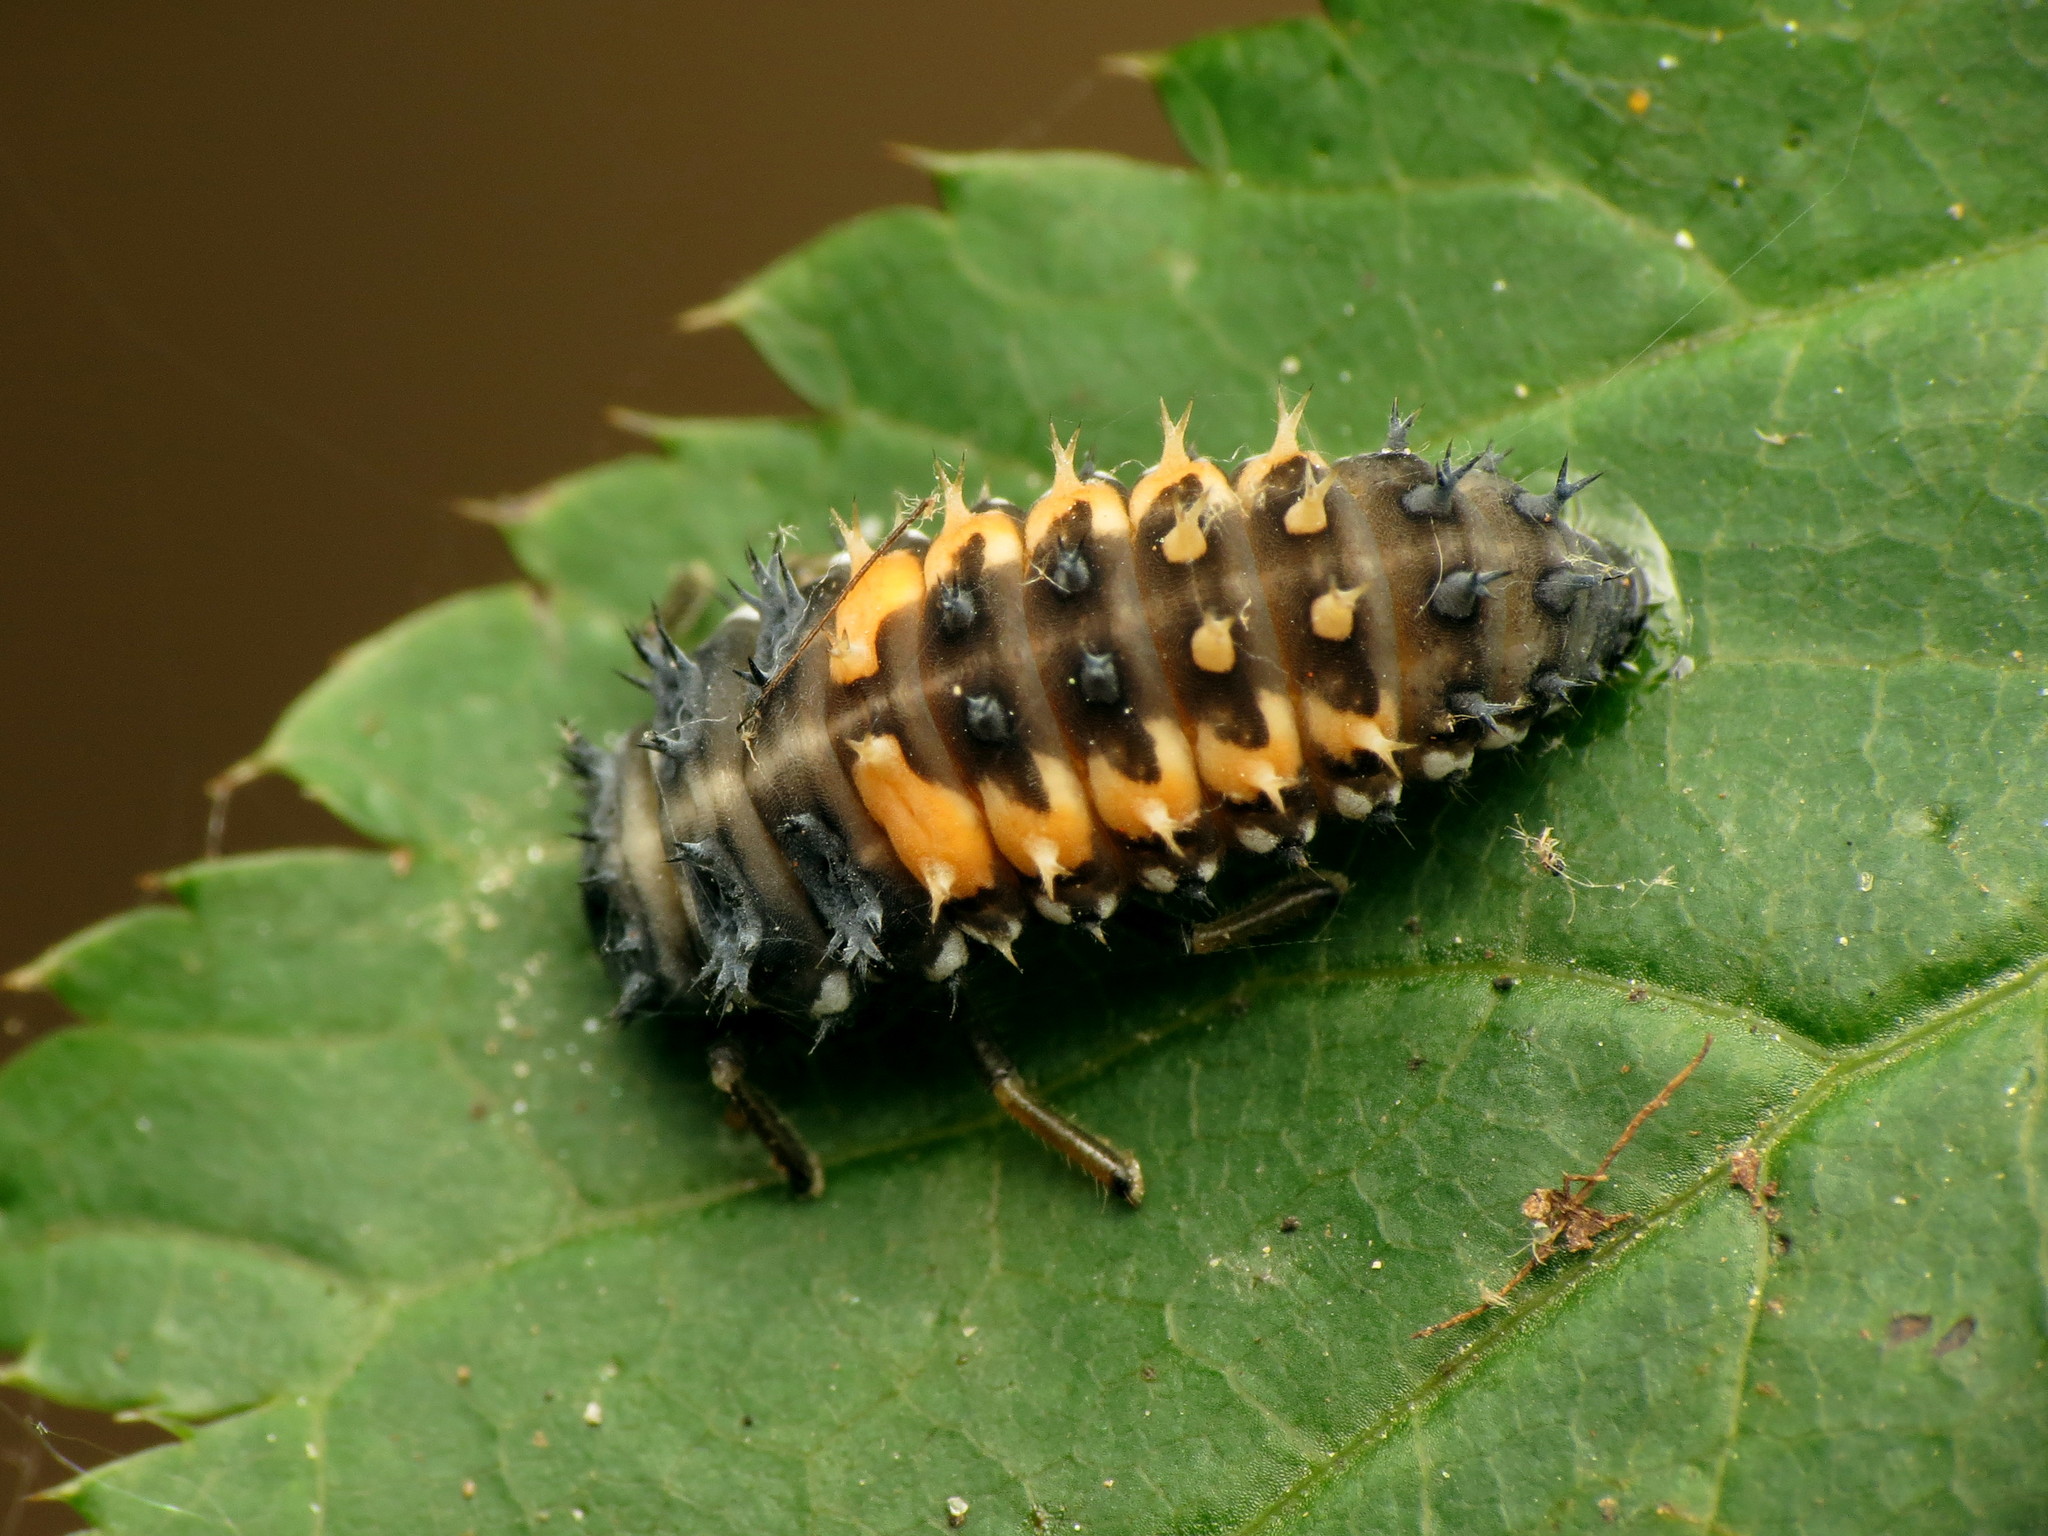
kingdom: Animalia
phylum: Arthropoda
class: Insecta
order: Coleoptera
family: Coccinellidae
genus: Harmonia
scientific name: Harmonia axyridis
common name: Harlequin ladybird
